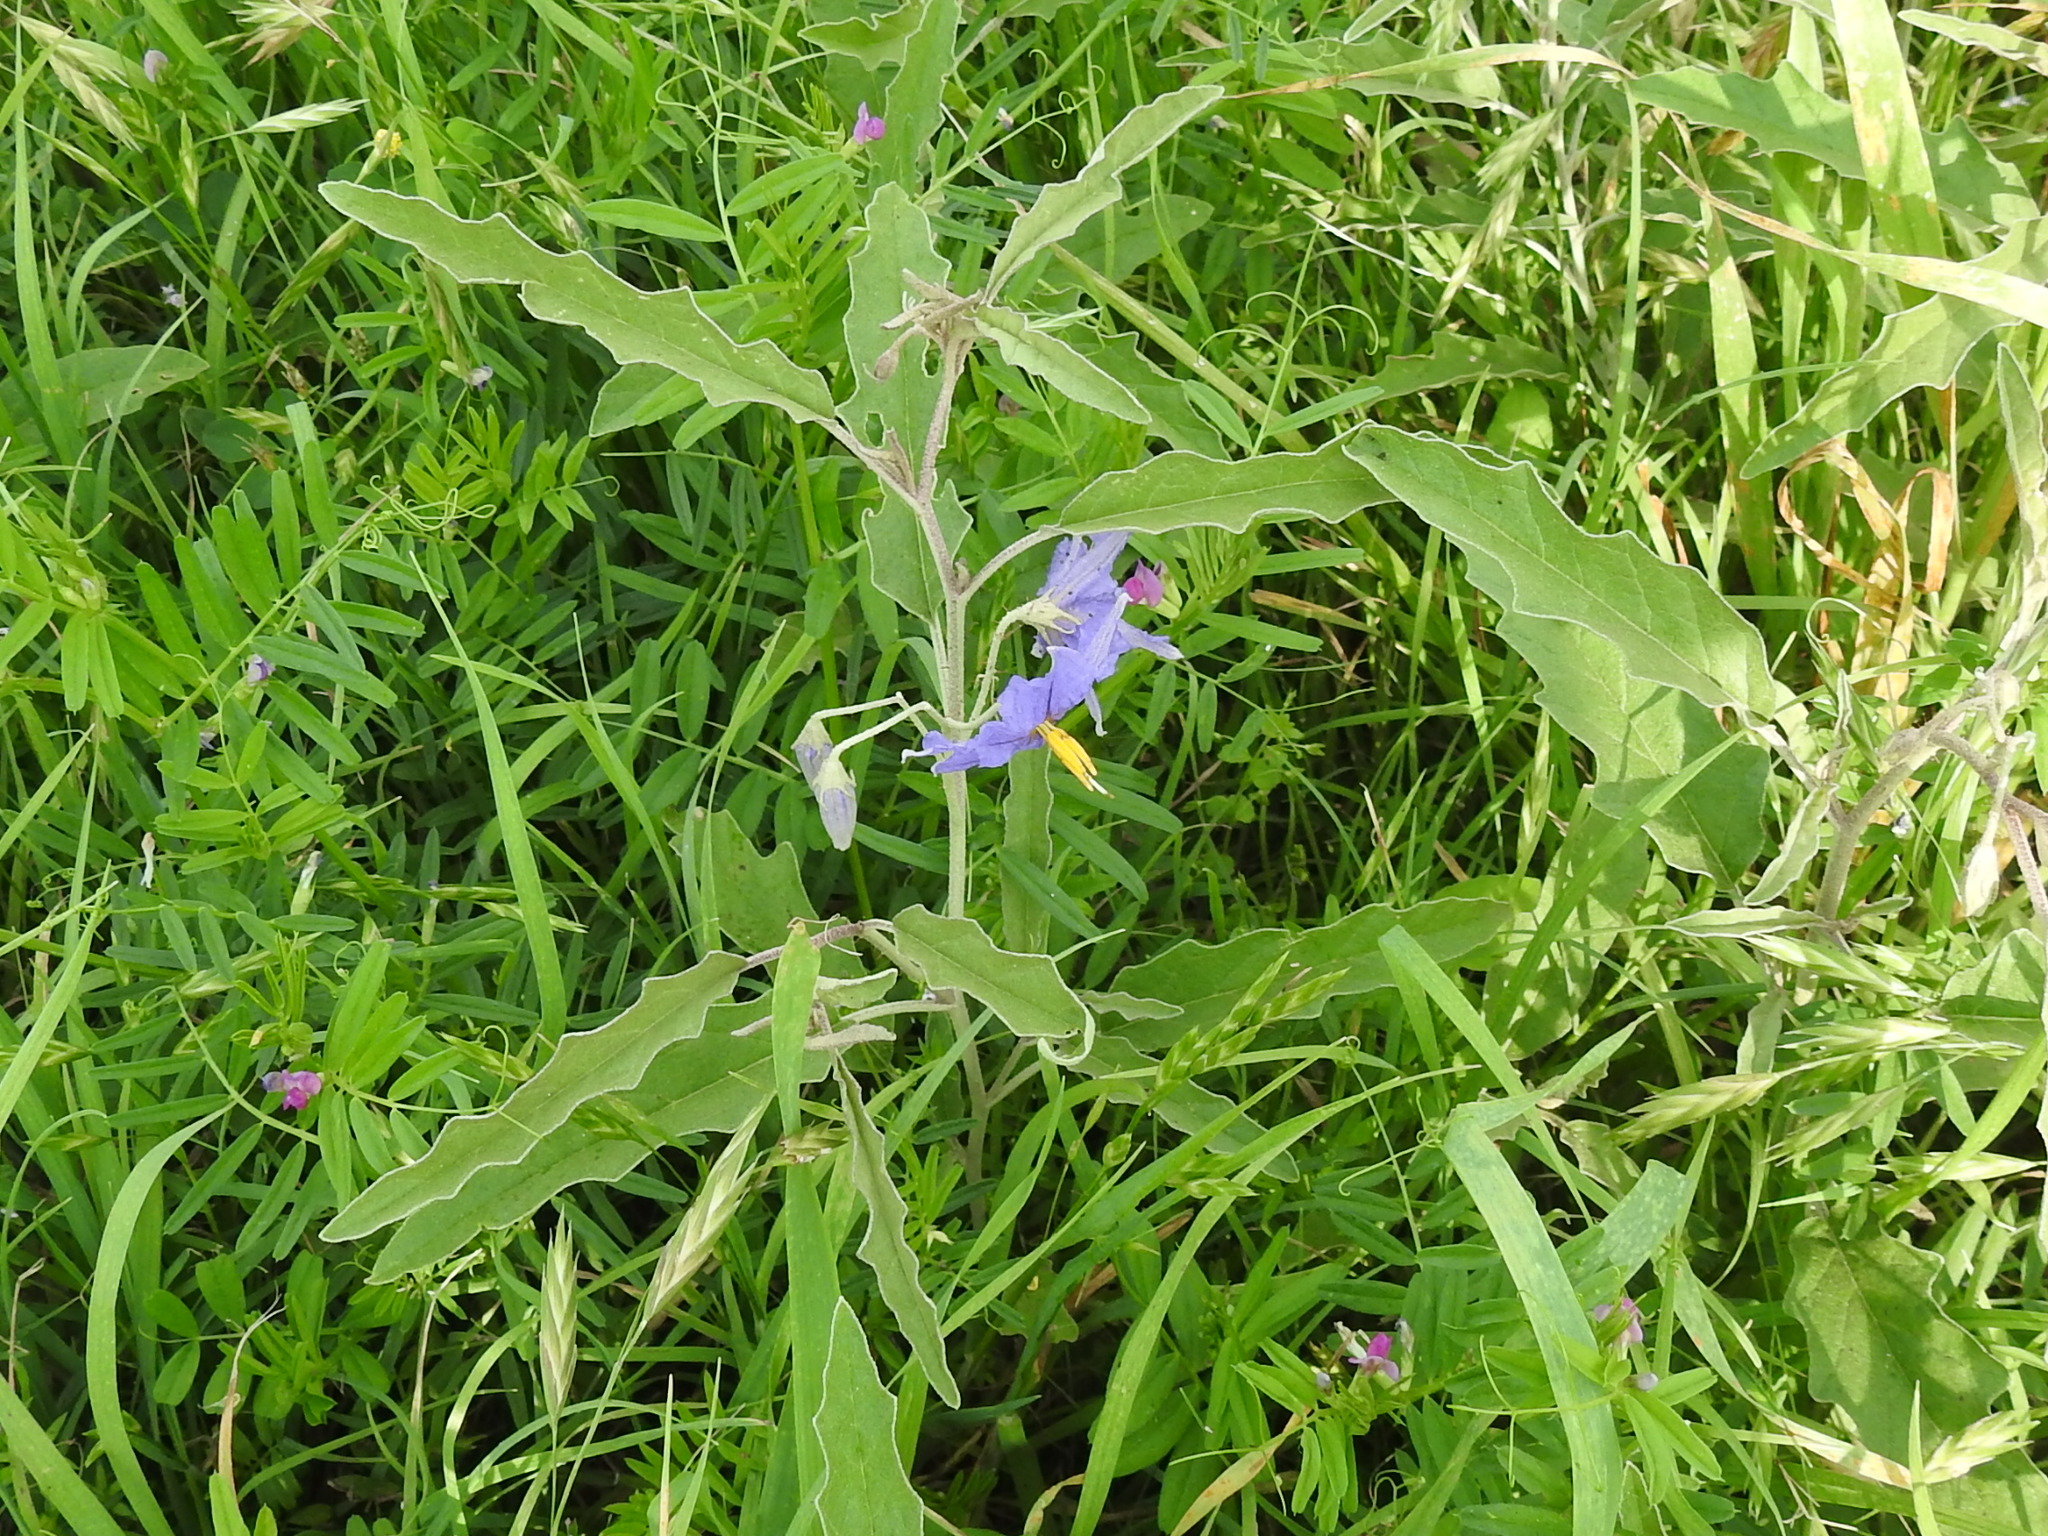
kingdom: Plantae
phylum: Tracheophyta
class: Magnoliopsida
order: Solanales
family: Solanaceae
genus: Solanum
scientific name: Solanum elaeagnifolium
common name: Silverleaf nightshade
